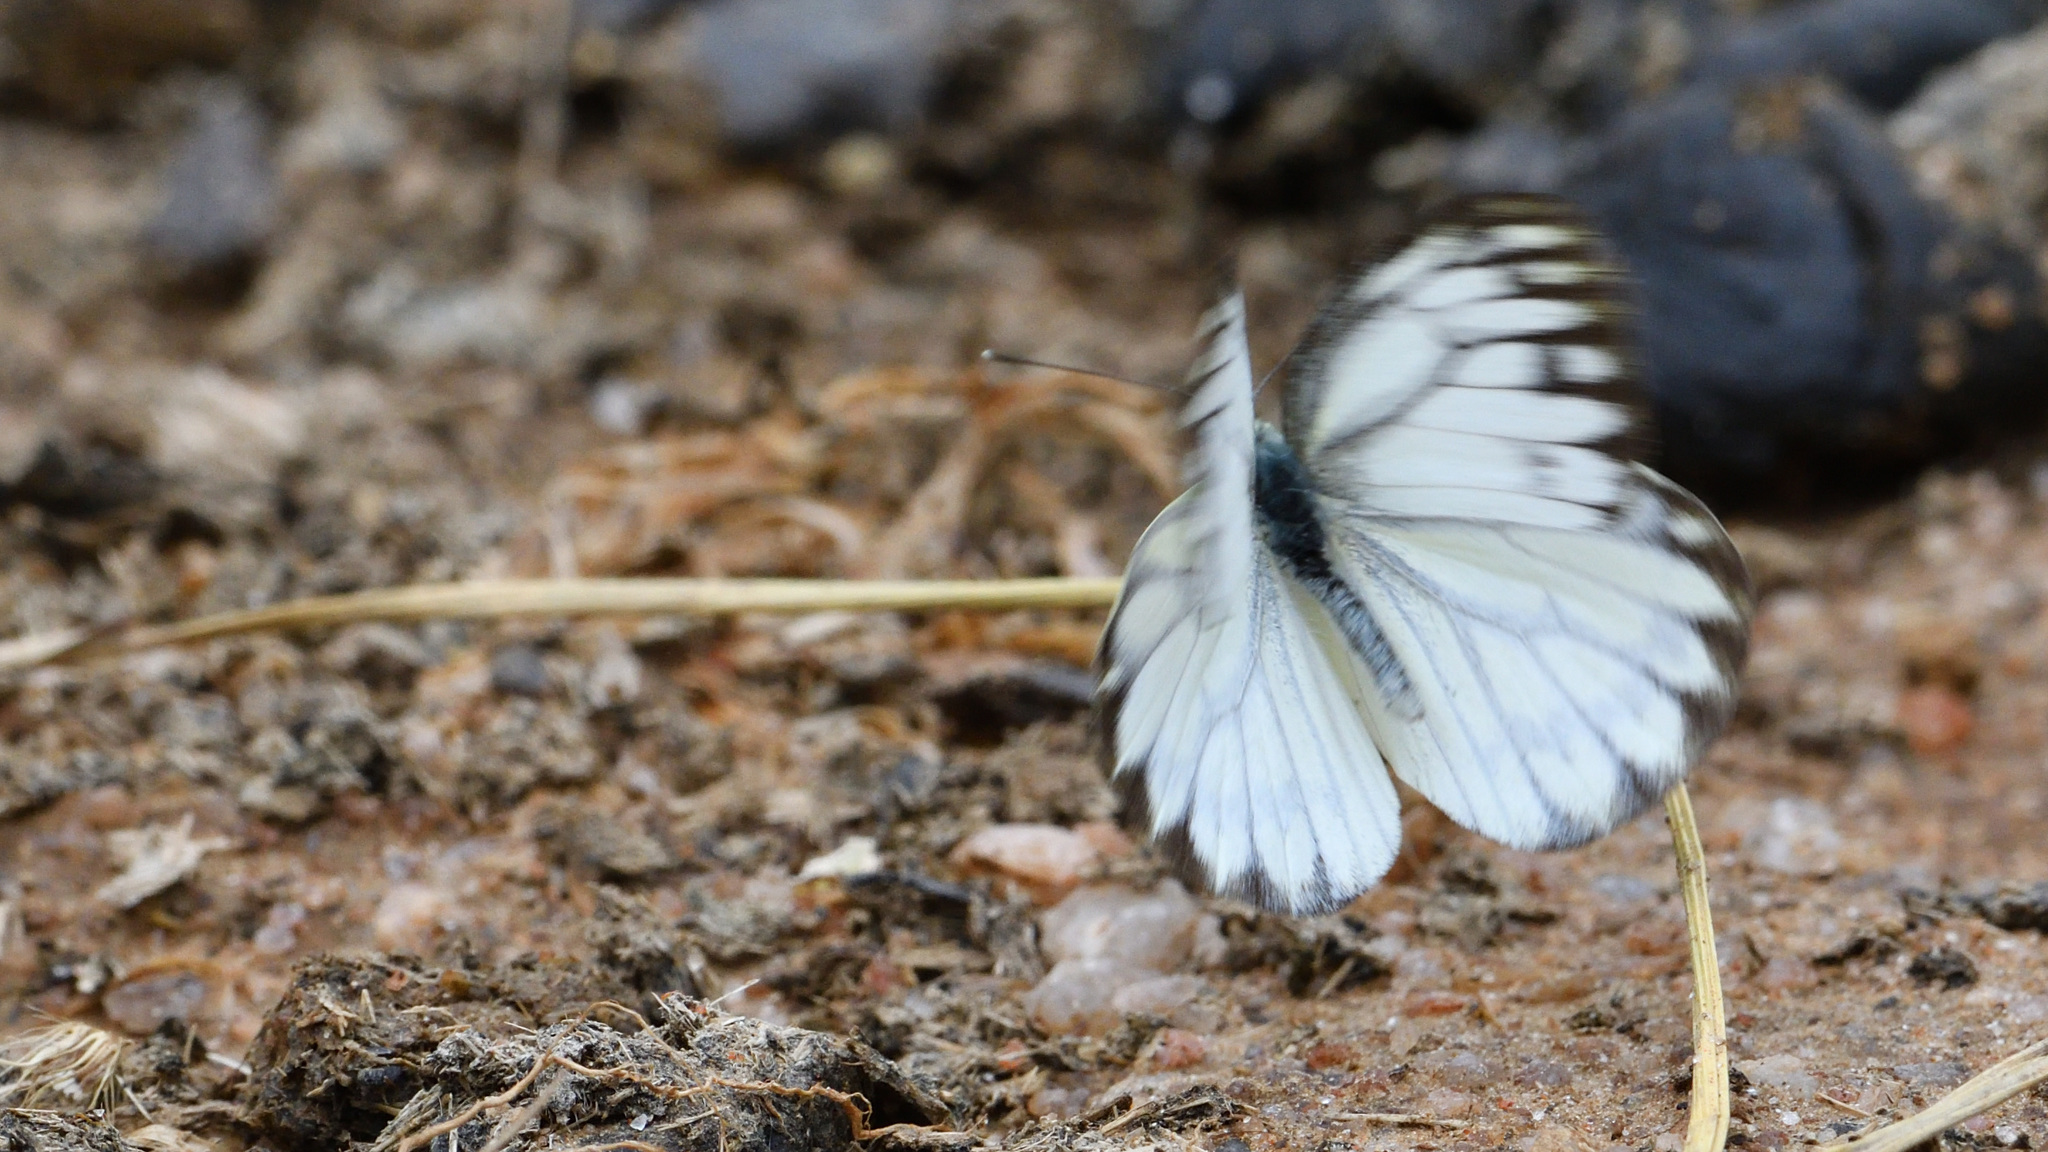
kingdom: Animalia
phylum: Arthropoda
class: Insecta
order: Lepidoptera
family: Pieridae
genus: Cepora
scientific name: Cepora nerissa
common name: Common gull
